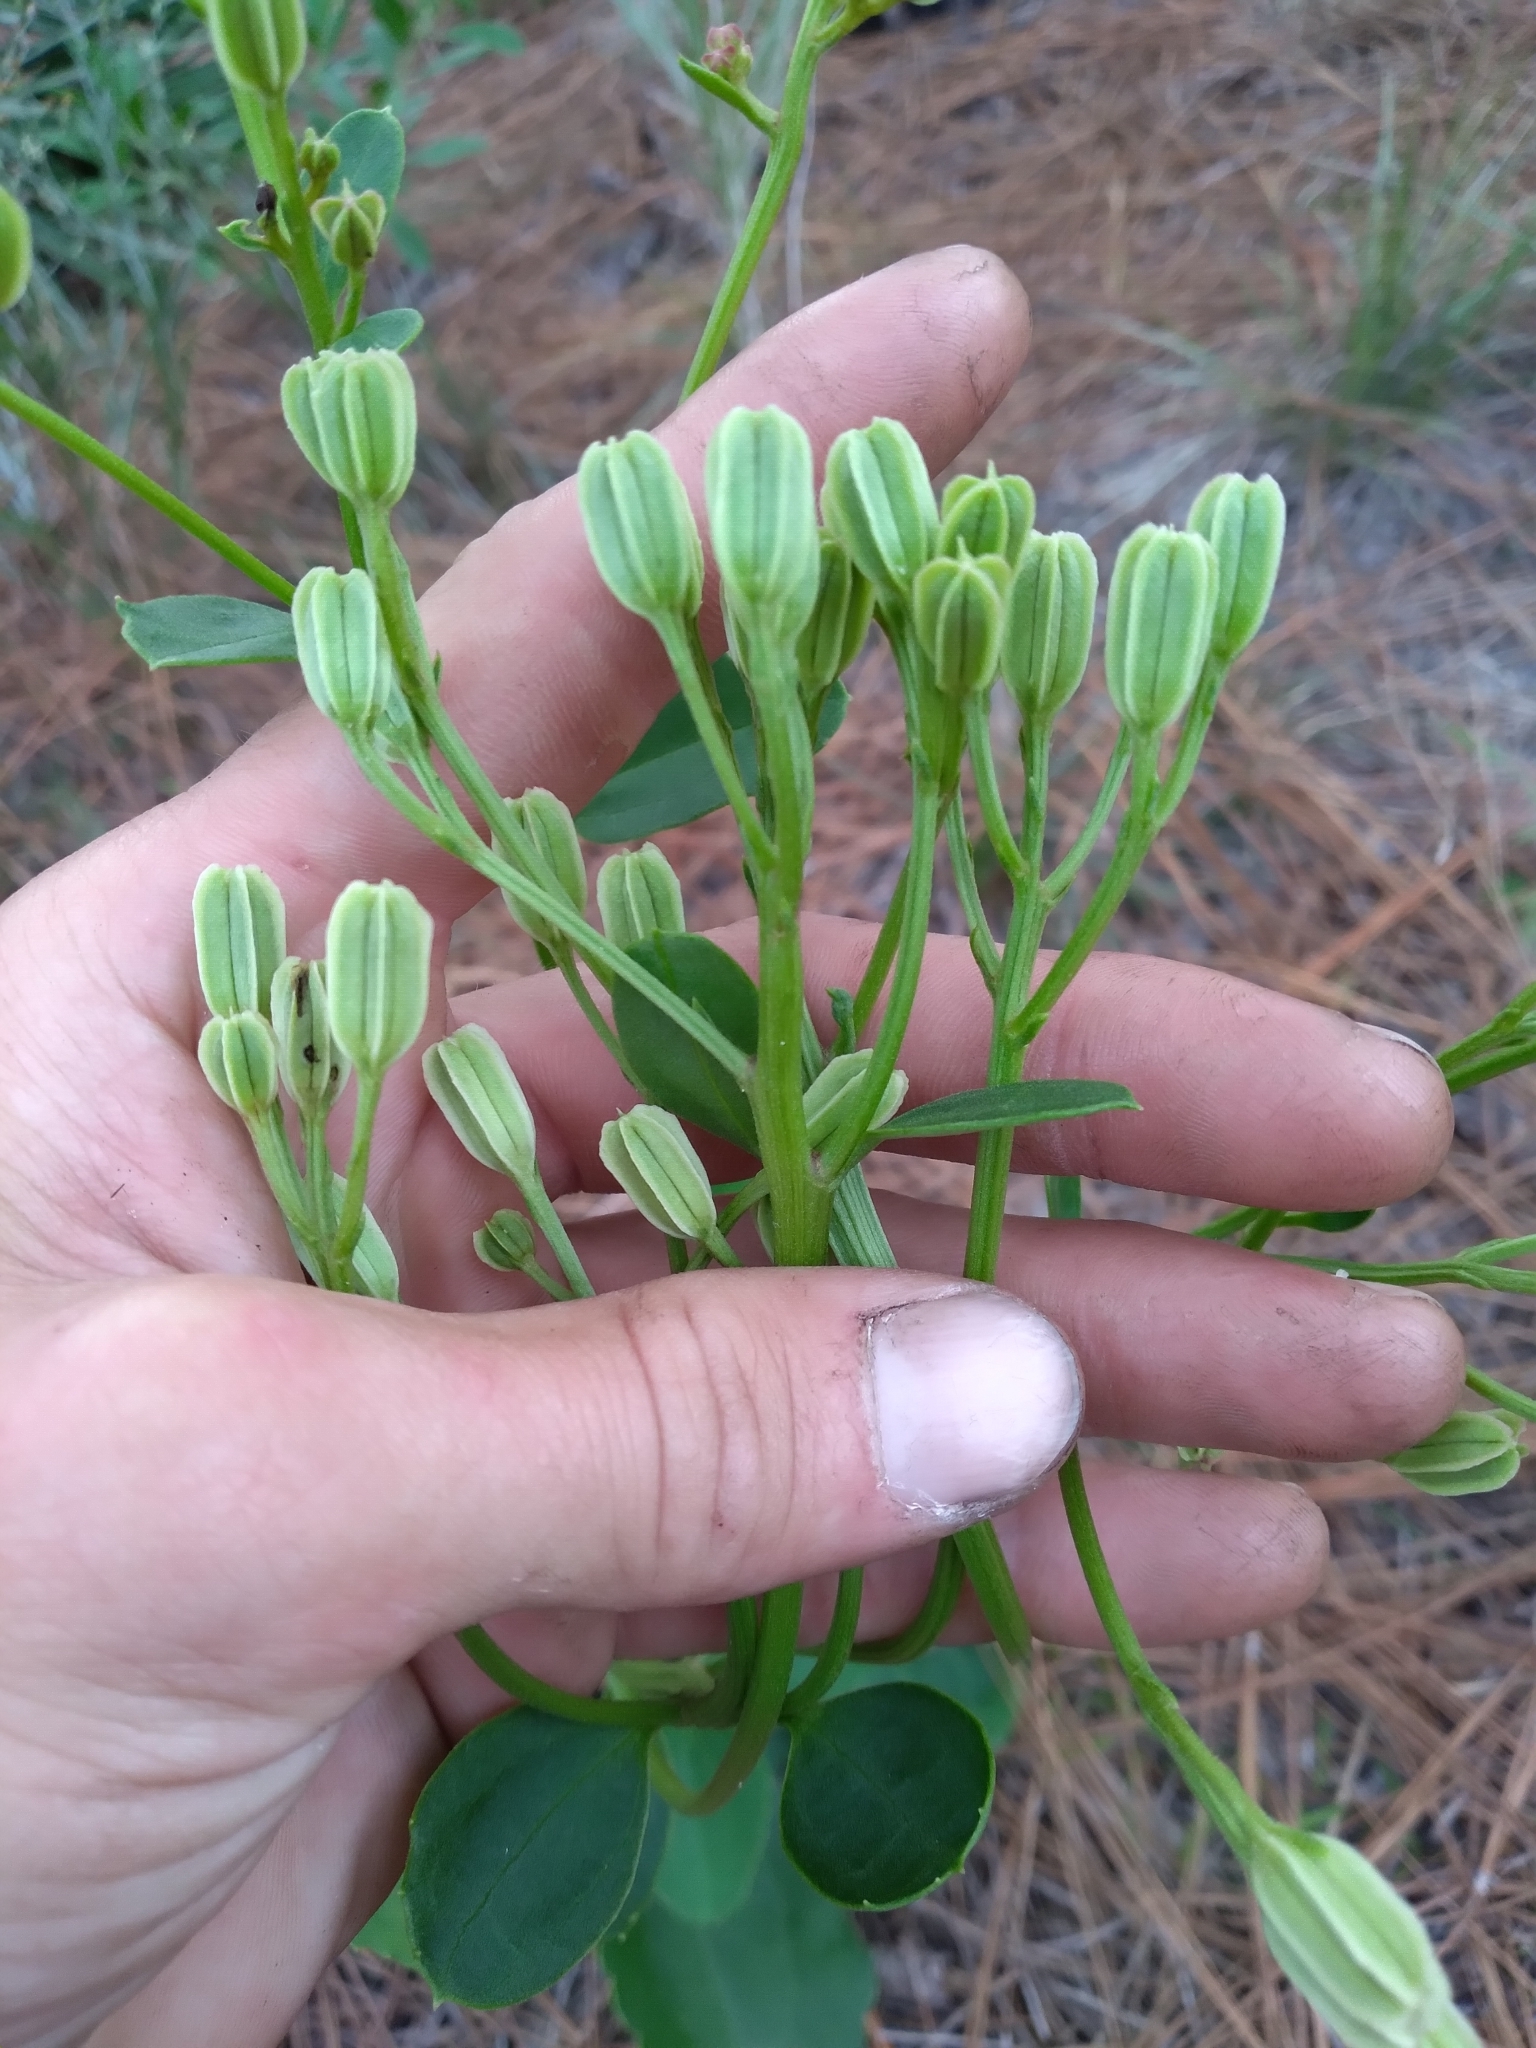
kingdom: Plantae
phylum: Tracheophyta
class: Magnoliopsida
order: Asterales
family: Asteraceae
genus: Arnoglossum
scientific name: Arnoglossum floridanum
